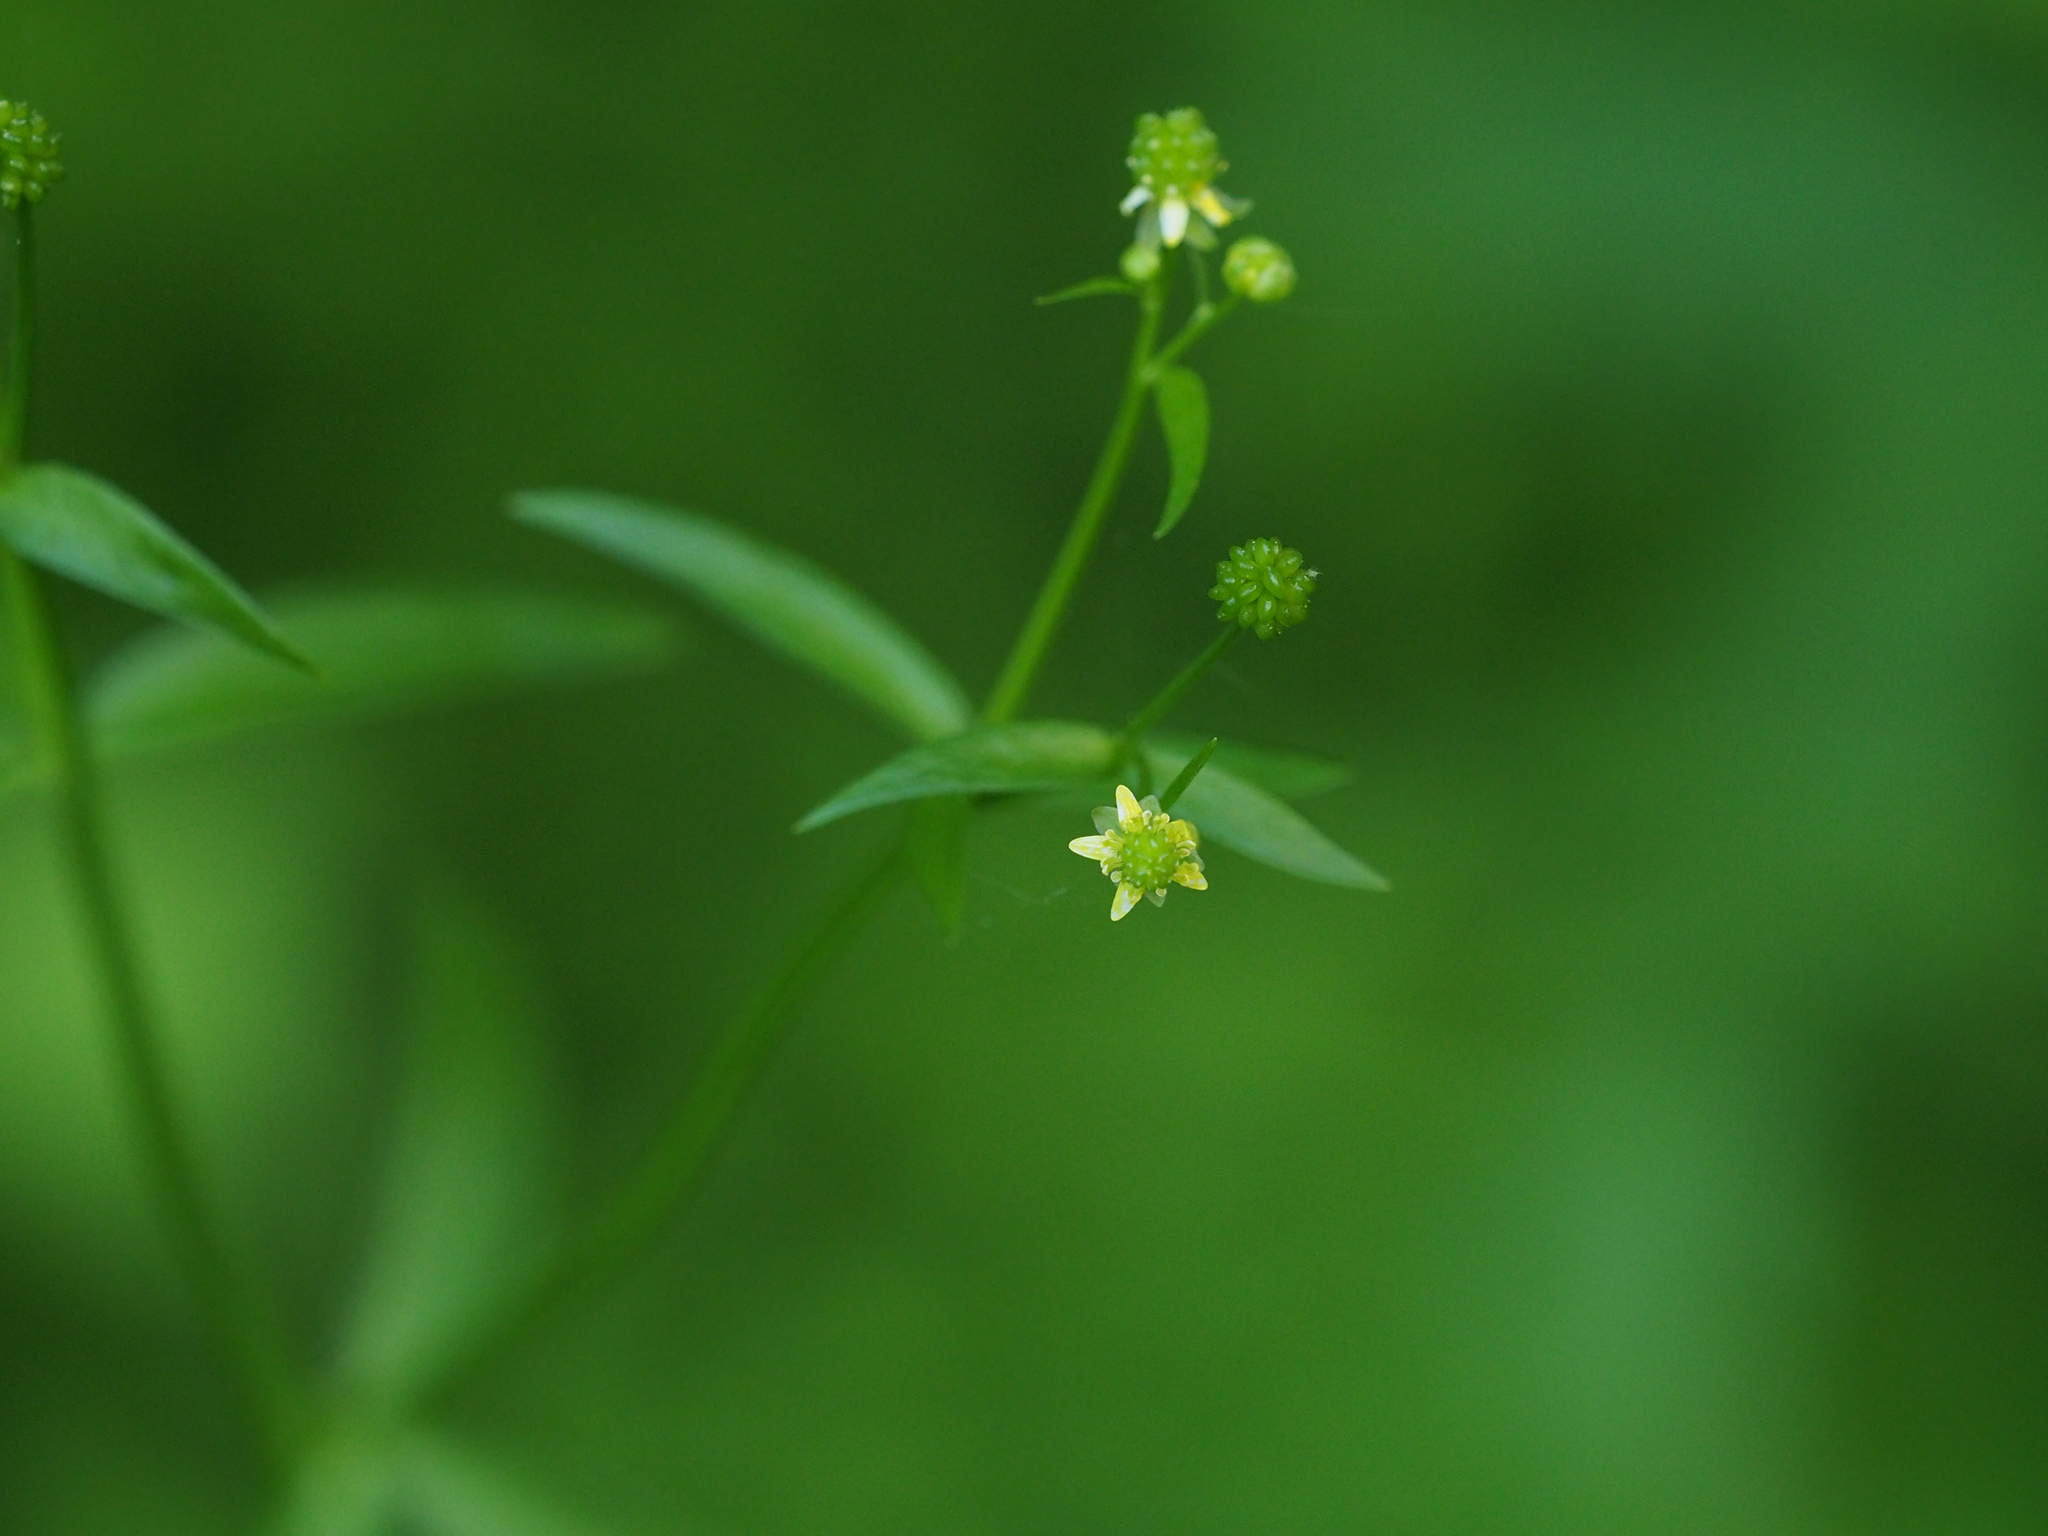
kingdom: Plantae
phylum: Tracheophyta
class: Magnoliopsida
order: Ranunculales
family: Ranunculaceae
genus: Ranunculus
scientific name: Ranunculus abortivus
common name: Early wood buttercup
